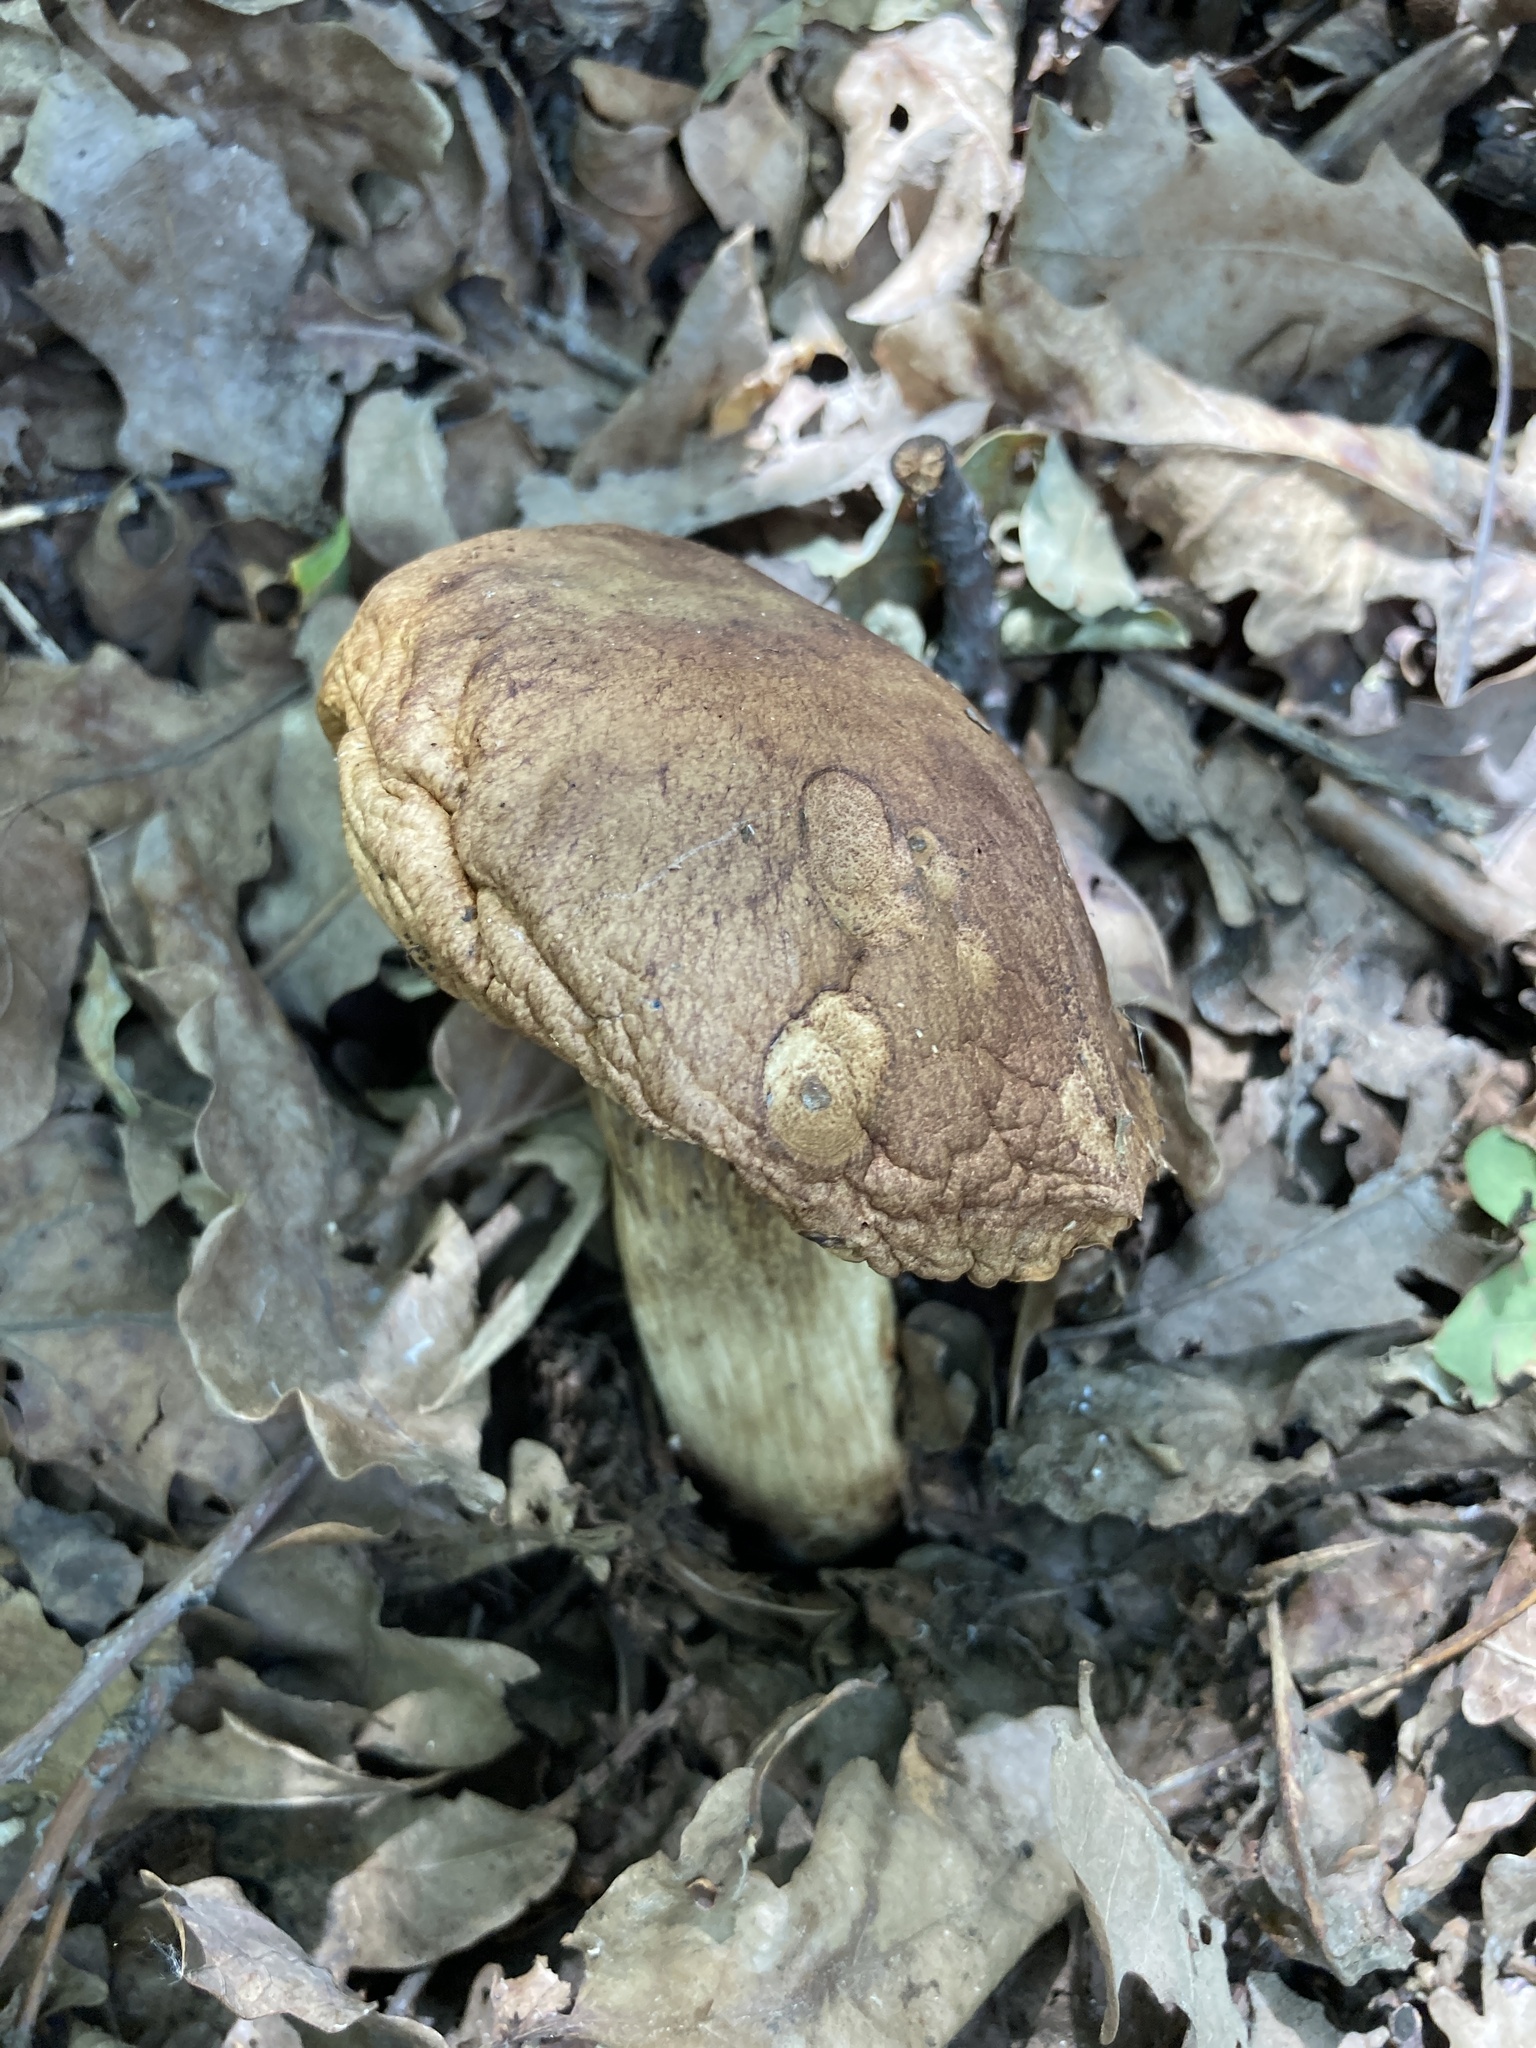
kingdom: Fungi
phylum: Basidiomycota
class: Agaricomycetes
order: Boletales
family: Boletaceae
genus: Boletus
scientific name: Boletus reticulatus
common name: Summer bolete
